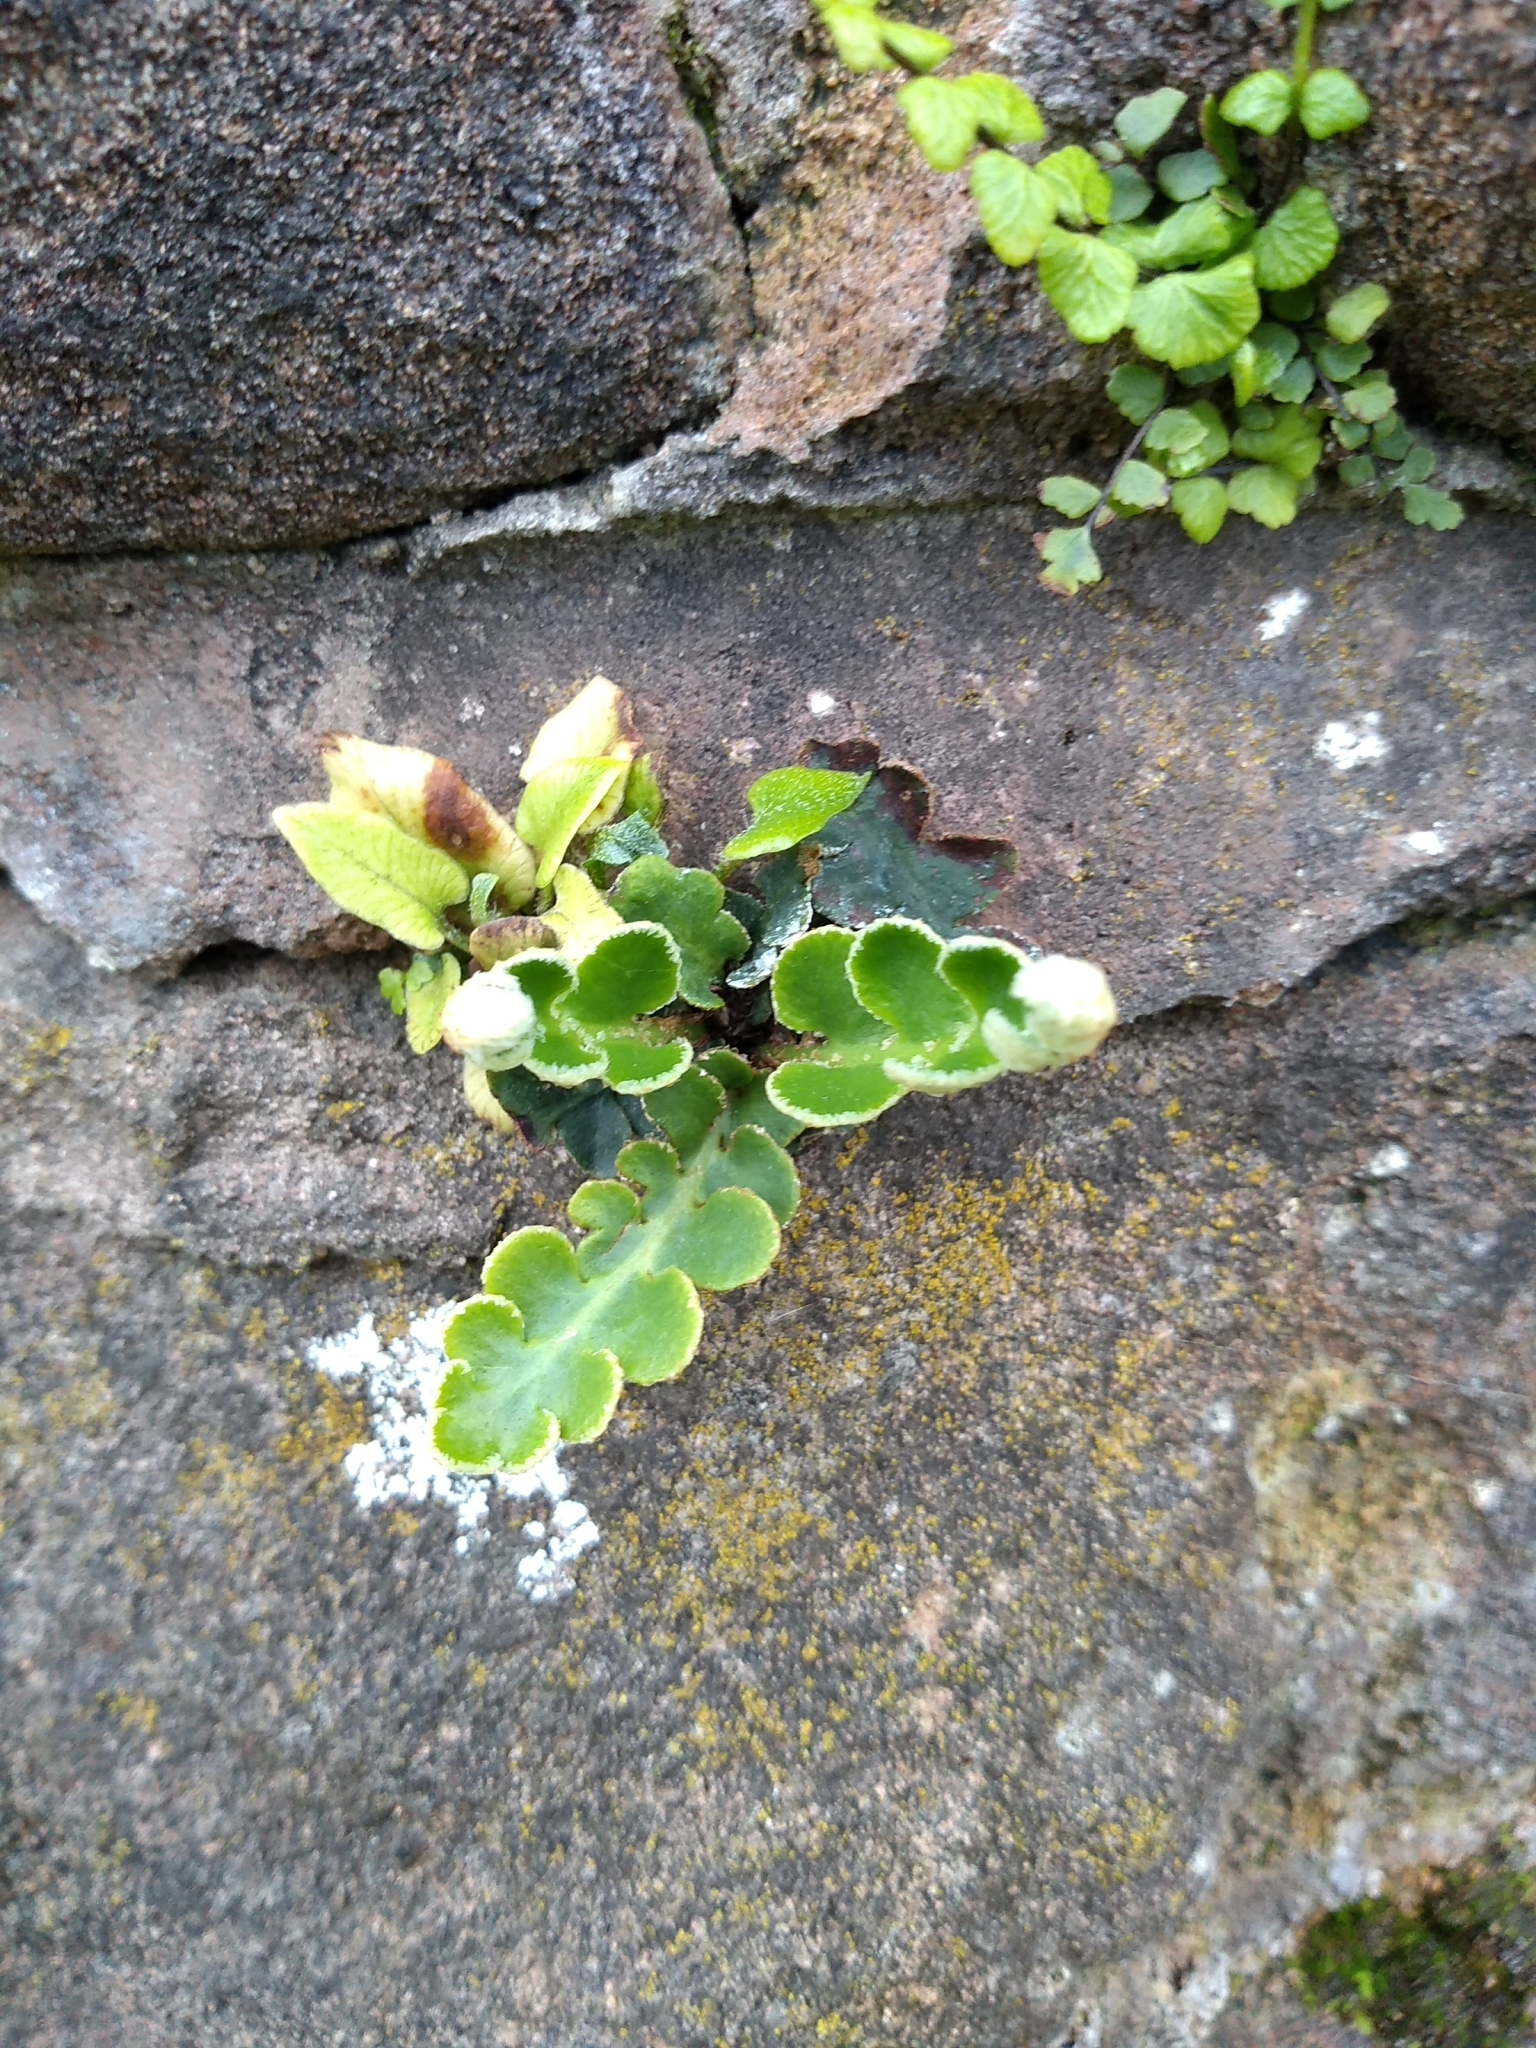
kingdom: Plantae
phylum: Tracheophyta
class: Polypodiopsida
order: Polypodiales
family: Aspleniaceae
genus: Asplenium
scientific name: Asplenium ceterach
